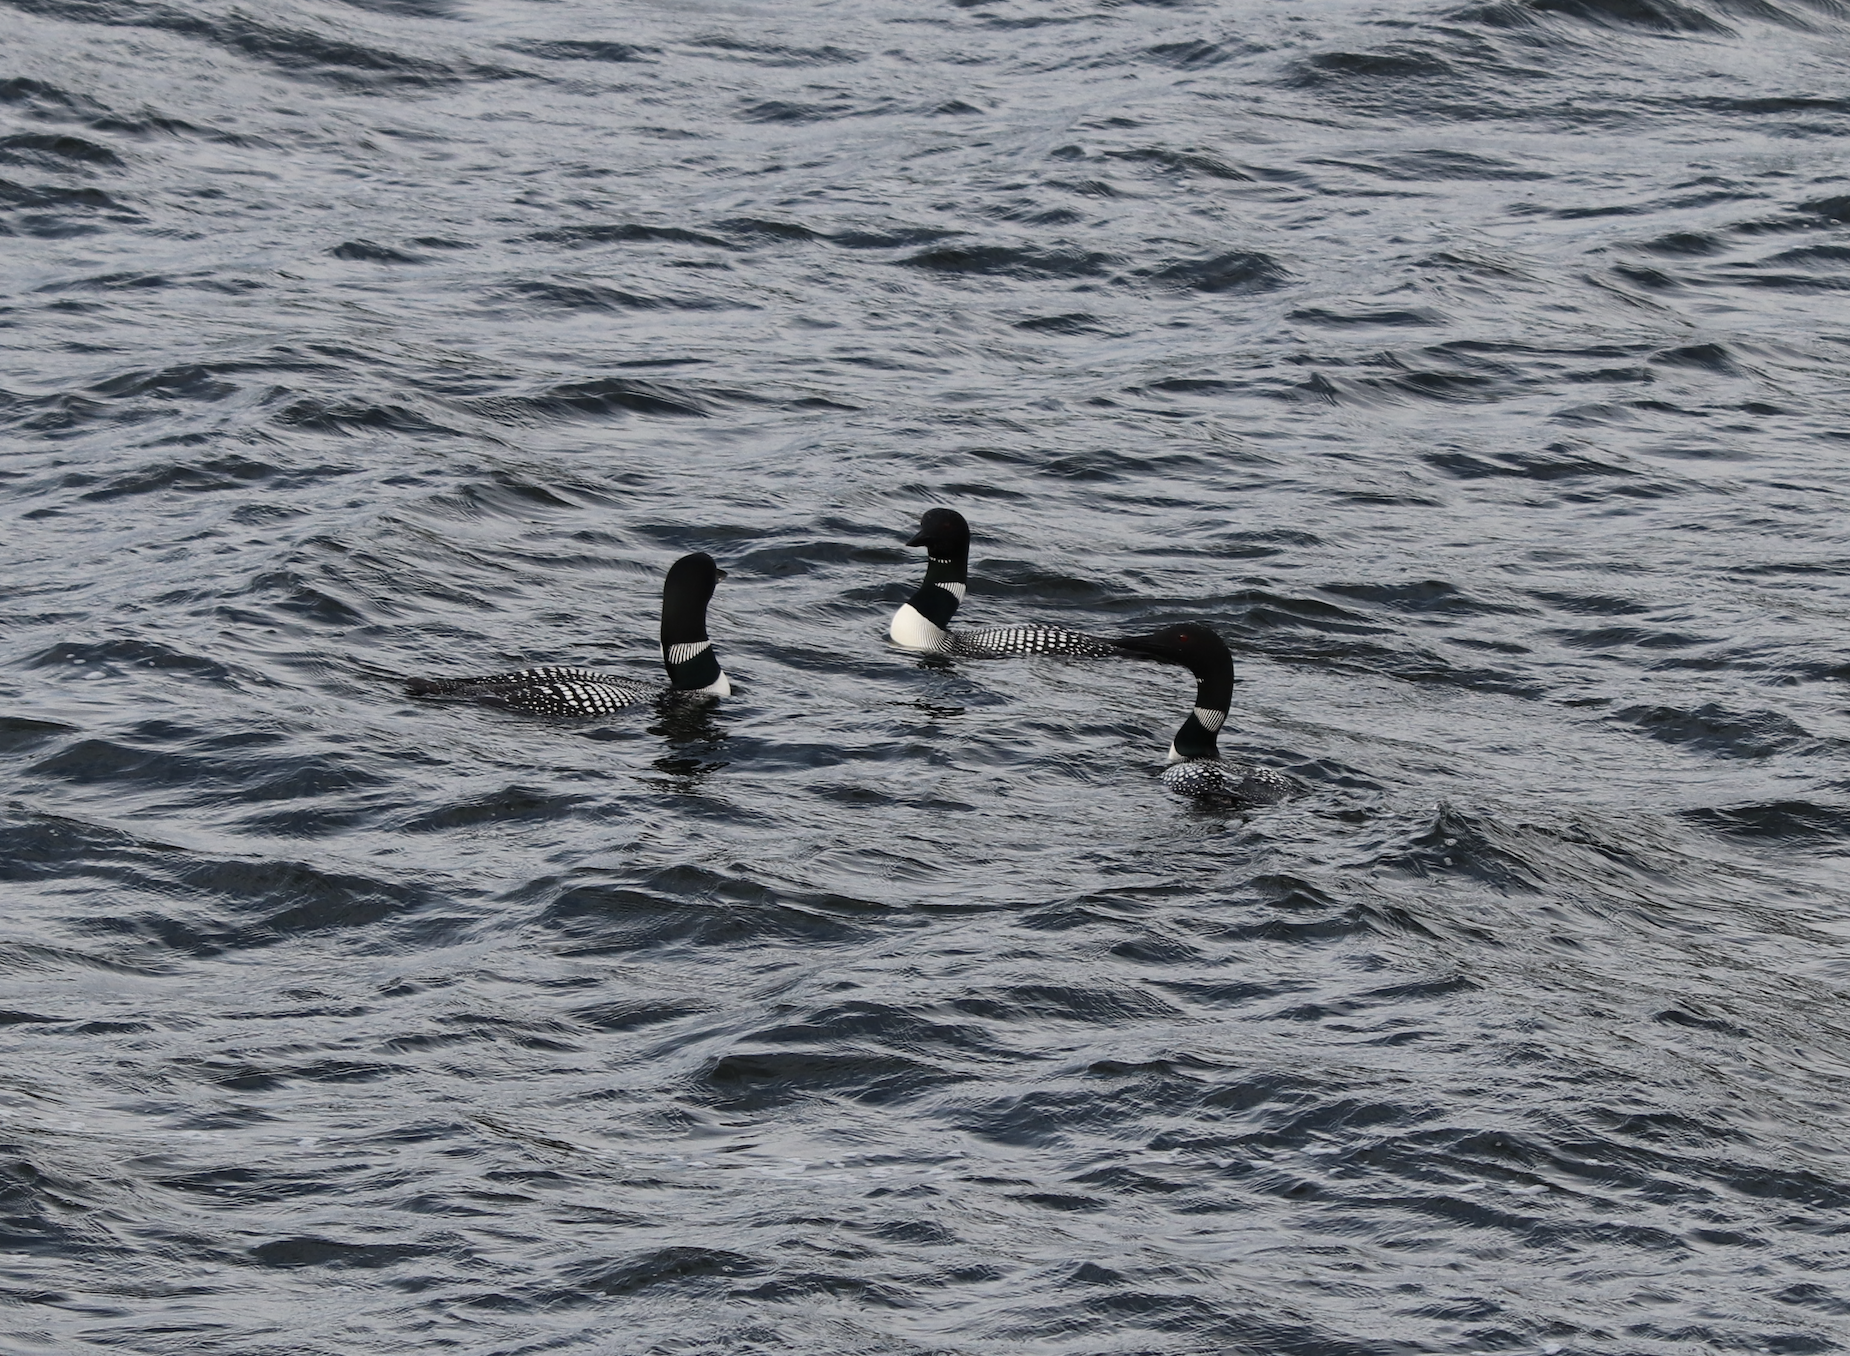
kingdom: Animalia
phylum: Chordata
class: Aves
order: Gaviiformes
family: Gaviidae
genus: Gavia
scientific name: Gavia immer
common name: Common loon
